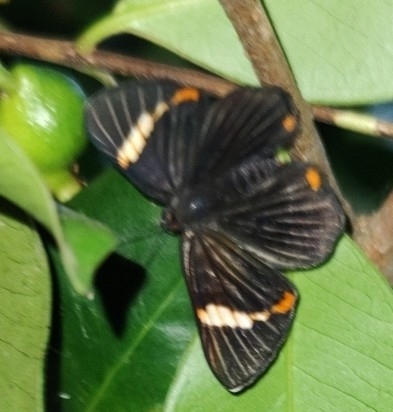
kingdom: Animalia
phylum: Arthropoda
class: Insecta
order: Lepidoptera
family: Riodinidae
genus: Riodina
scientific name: Riodina lycisca
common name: Lycisca metalmark
